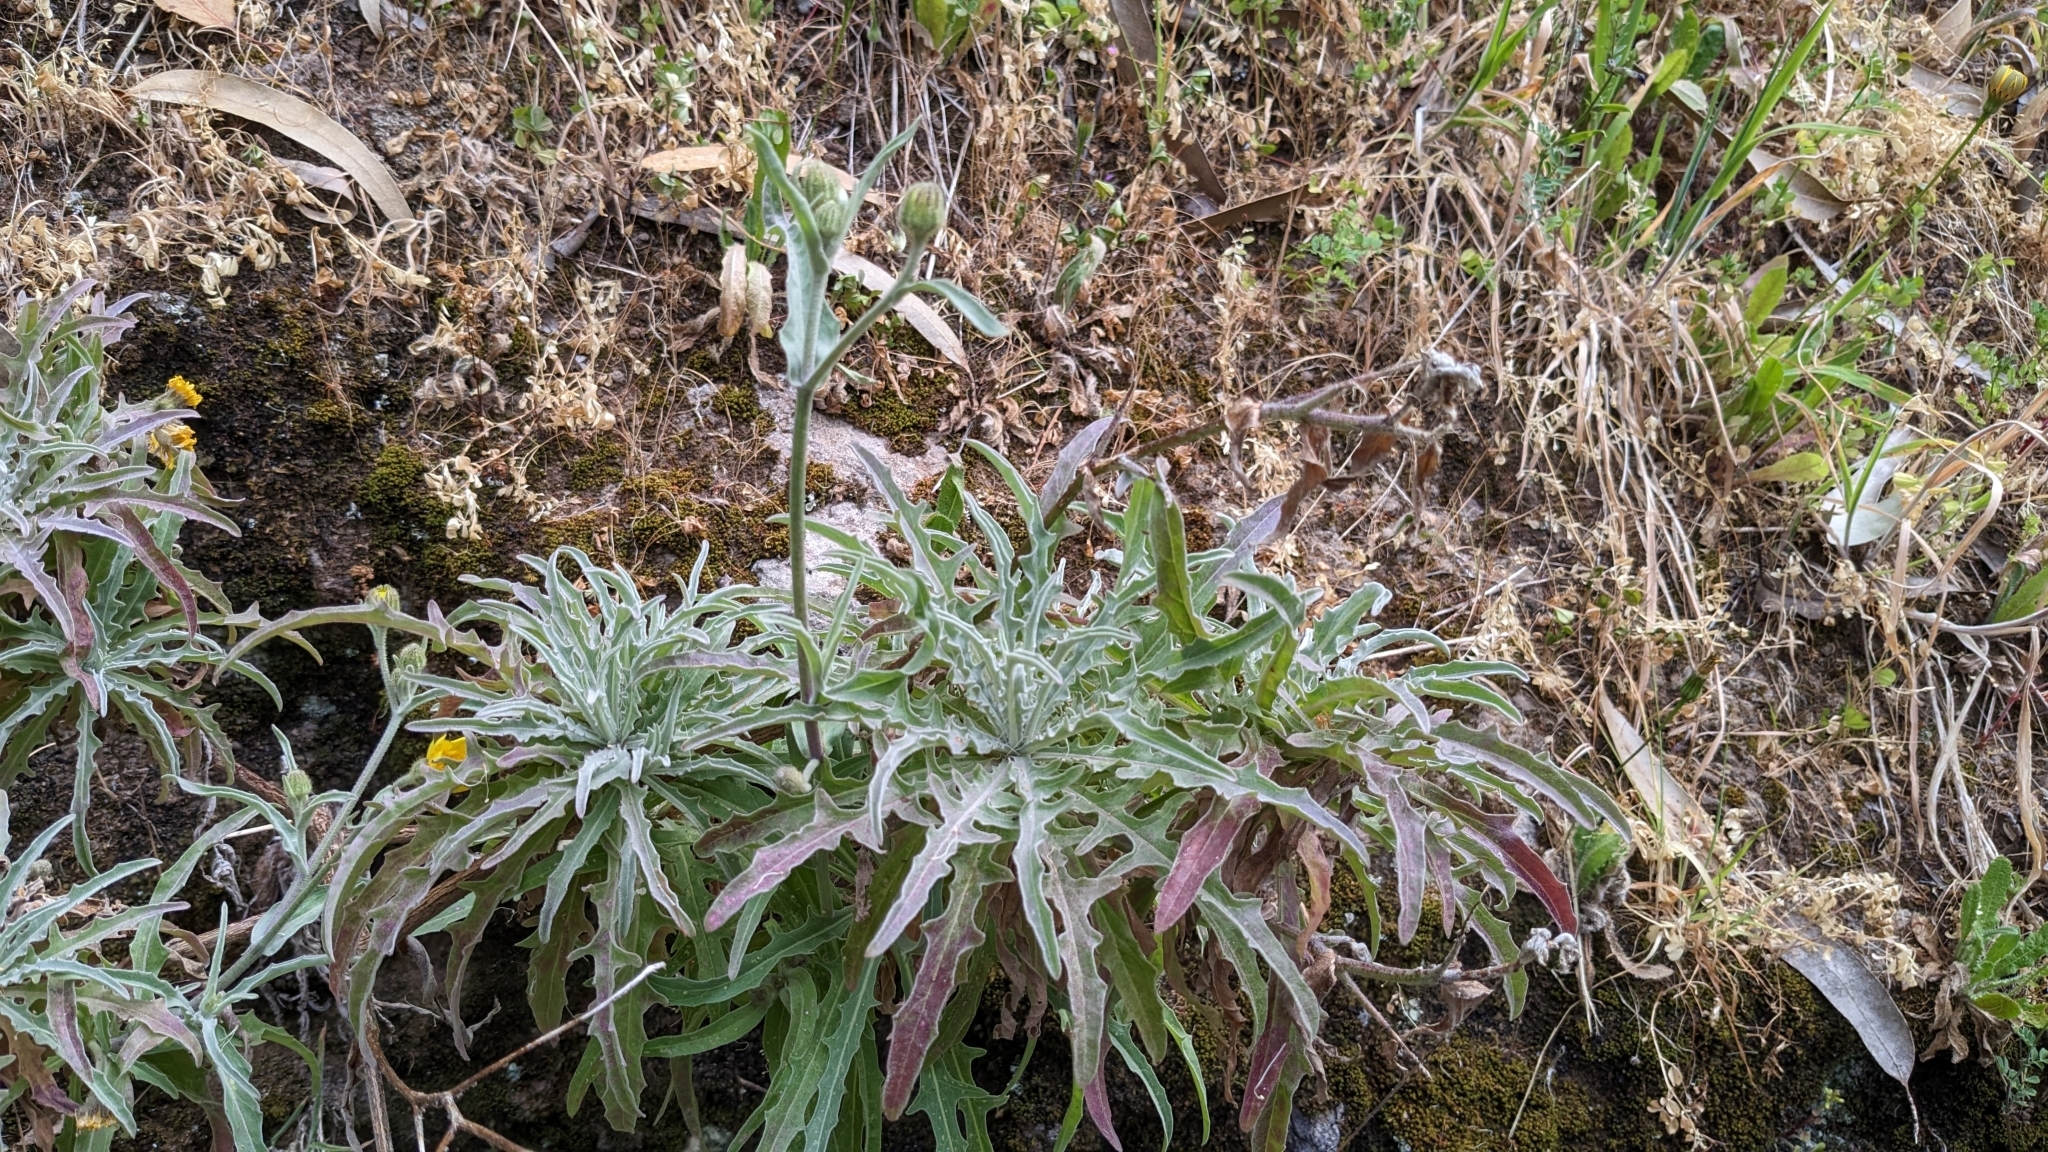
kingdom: Plantae
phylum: Tracheophyta
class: Magnoliopsida
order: Asterales
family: Asteraceae
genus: Andryala
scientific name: Andryala glandulosa
